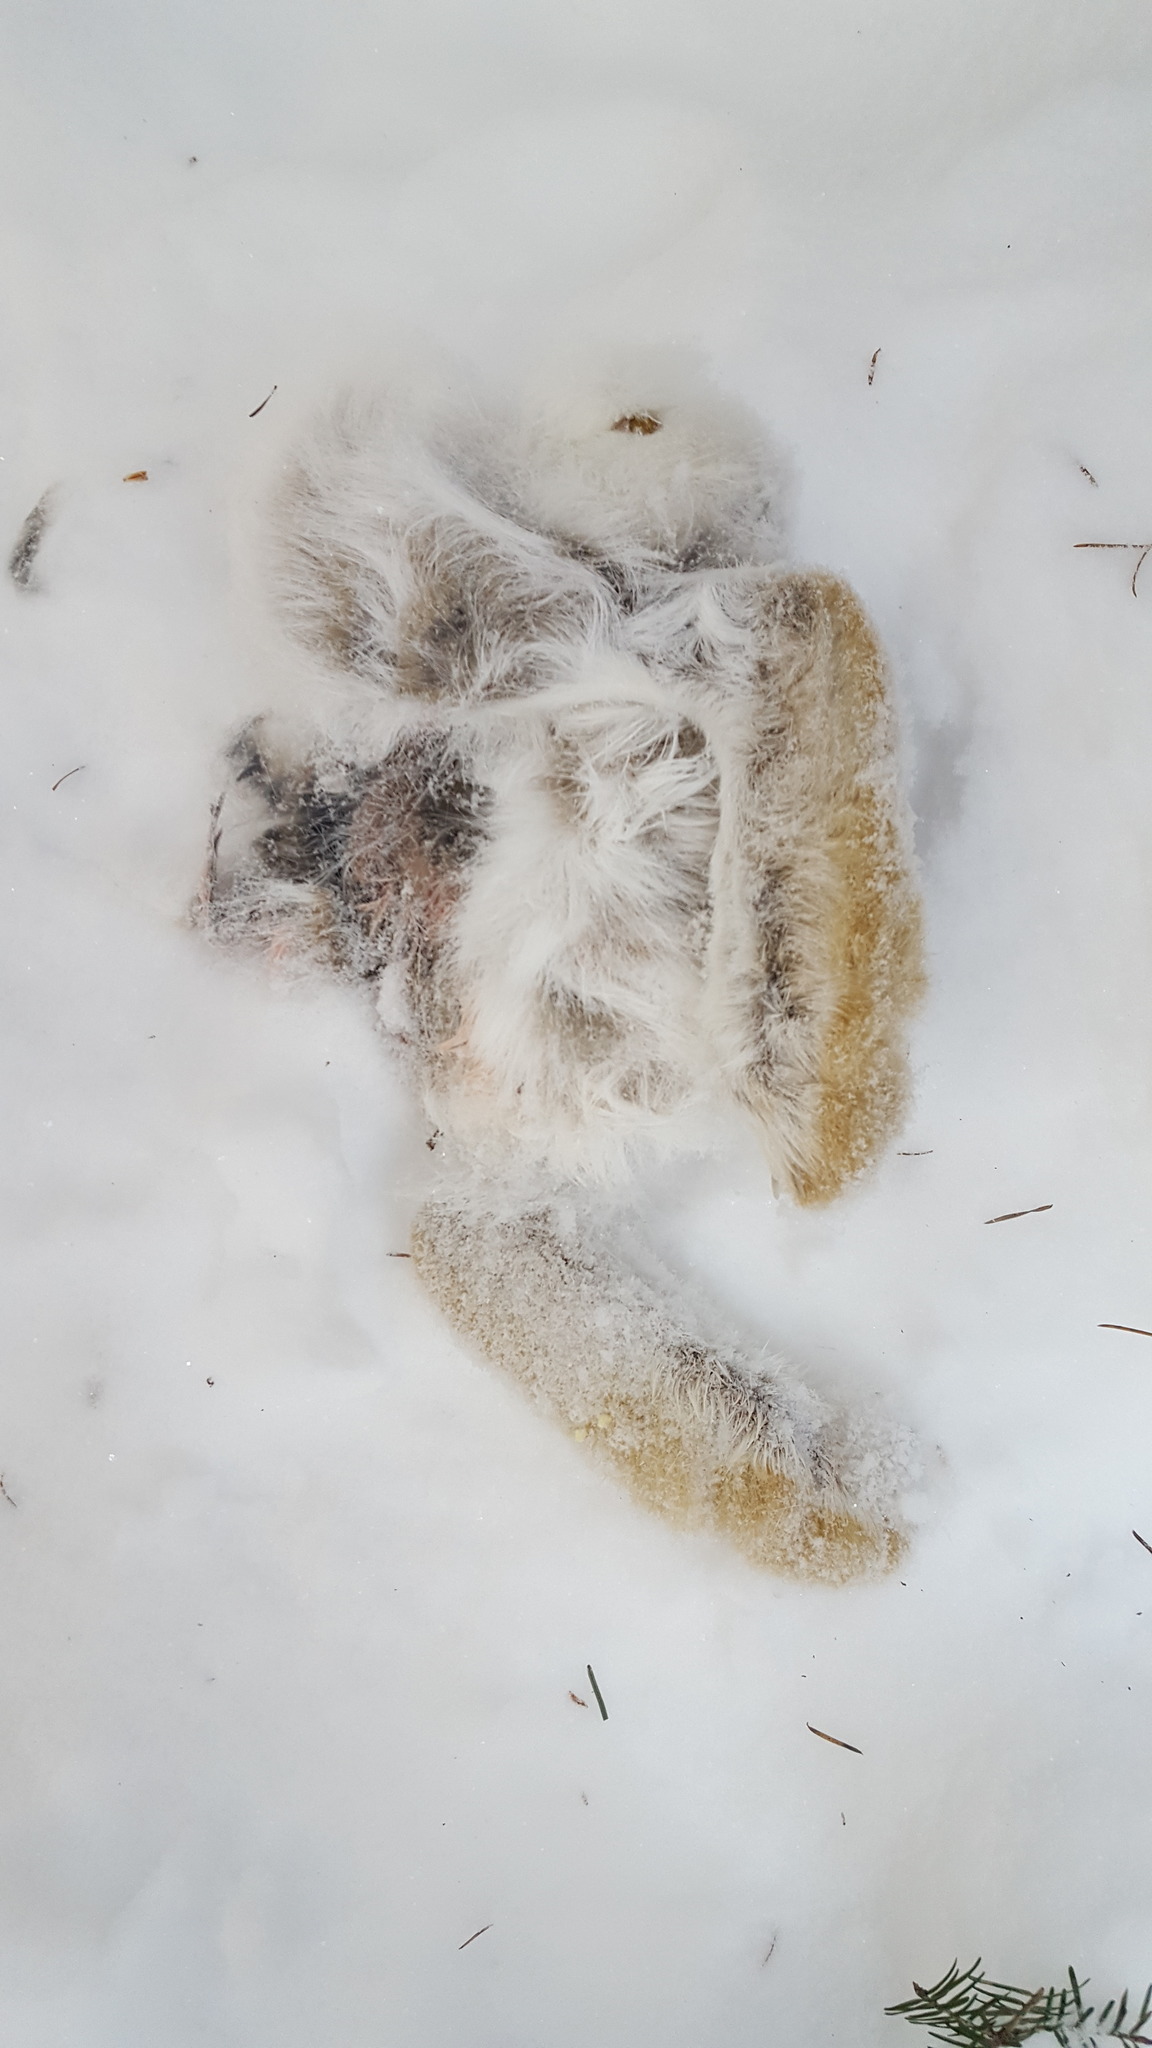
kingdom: Animalia
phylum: Chordata
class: Mammalia
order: Lagomorpha
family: Leporidae
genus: Lepus
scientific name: Lepus americanus
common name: Snowshoe hare
